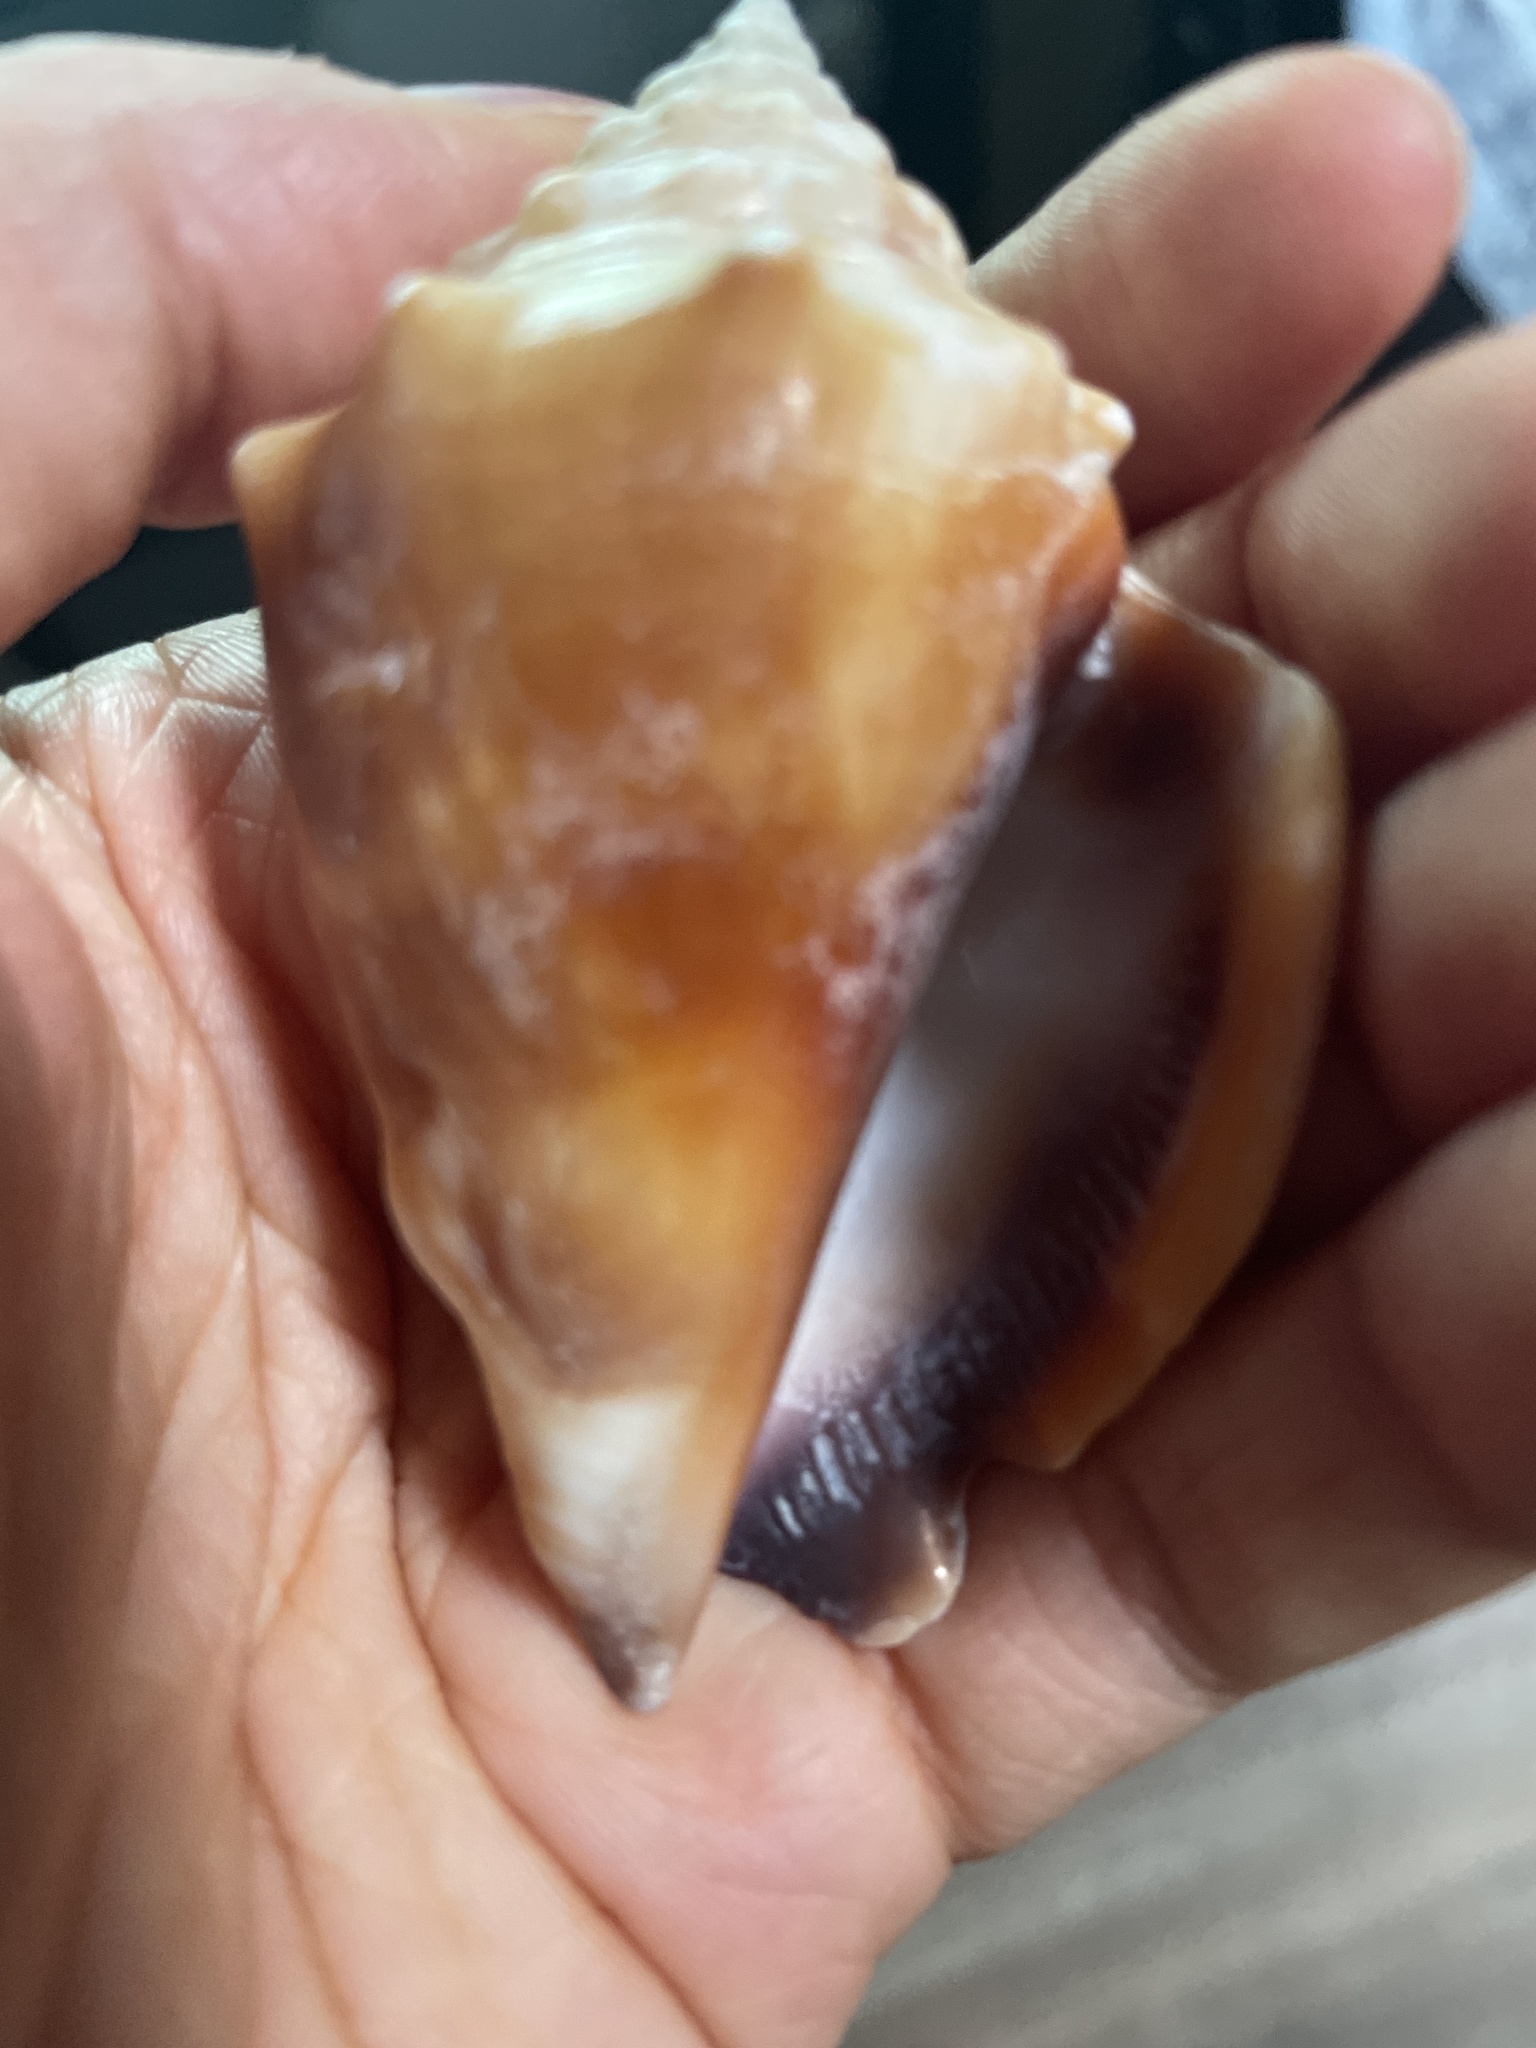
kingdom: Animalia
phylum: Mollusca
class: Gastropoda
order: Littorinimorpha
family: Strombidae
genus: Strombus
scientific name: Strombus alatus
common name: Florida fighting conch
